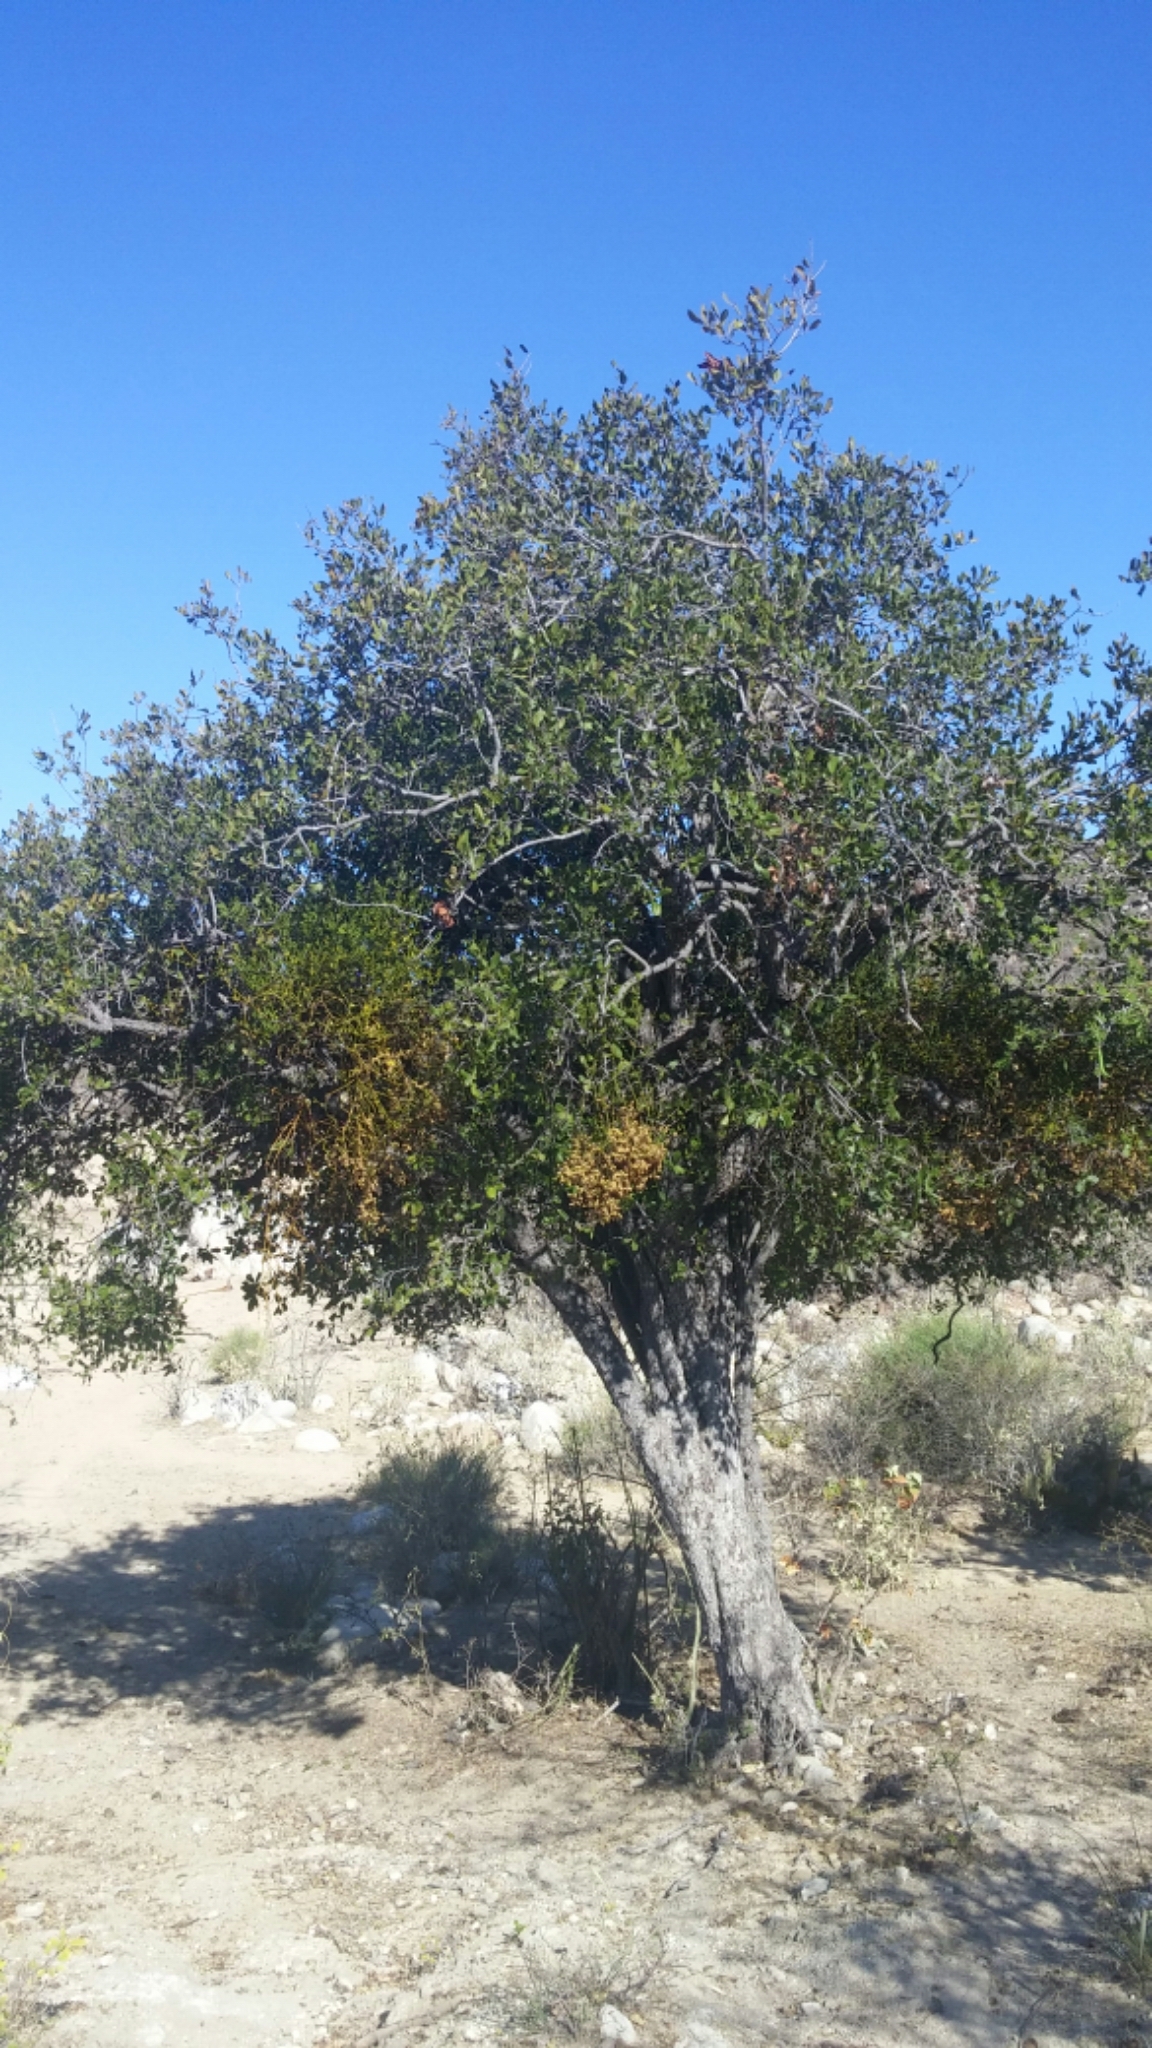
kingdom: Plantae
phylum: Tracheophyta
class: Magnoliopsida
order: Ericales
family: Ebenaceae
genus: Diospyros
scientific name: Diospyros californica
